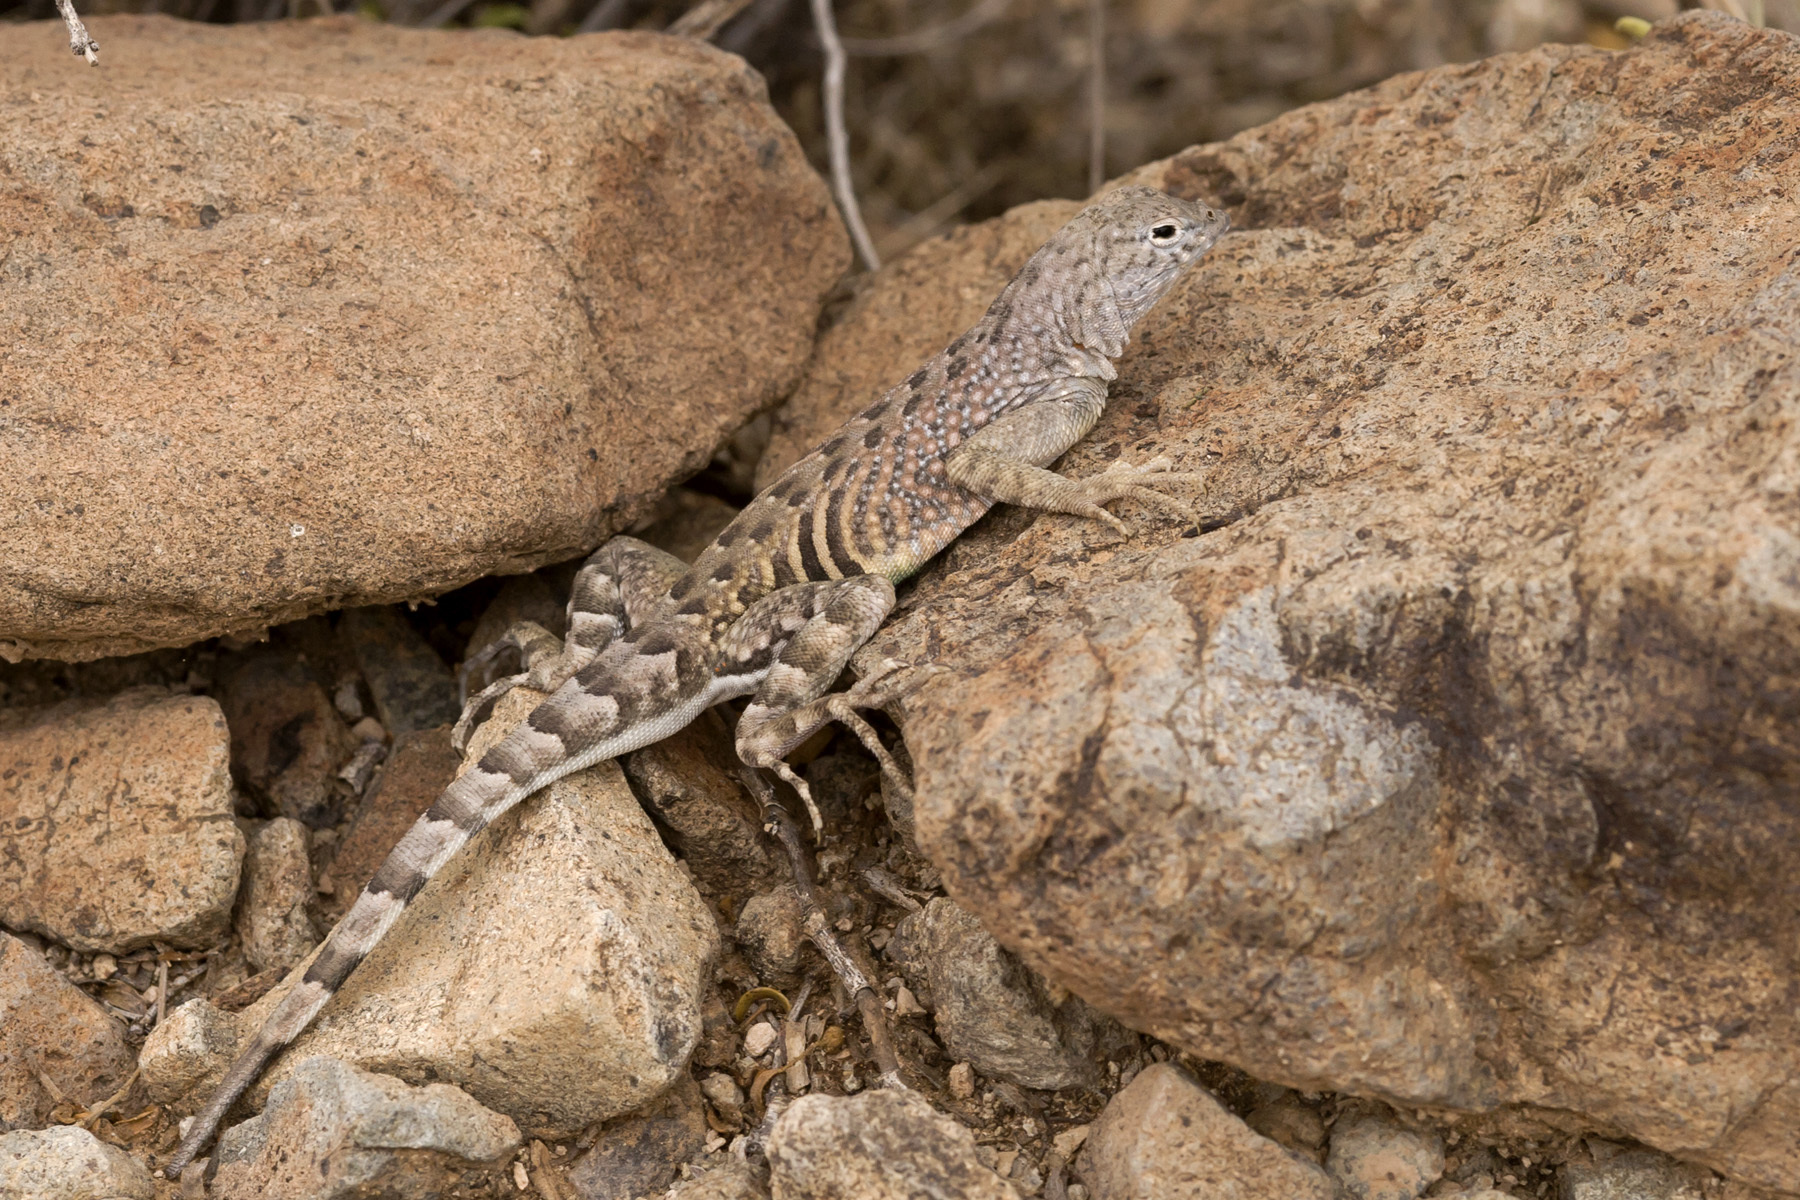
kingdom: Animalia
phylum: Chordata
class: Squamata
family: Phrynosomatidae
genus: Cophosaurus
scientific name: Cophosaurus texanus
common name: Greater earless lizard
